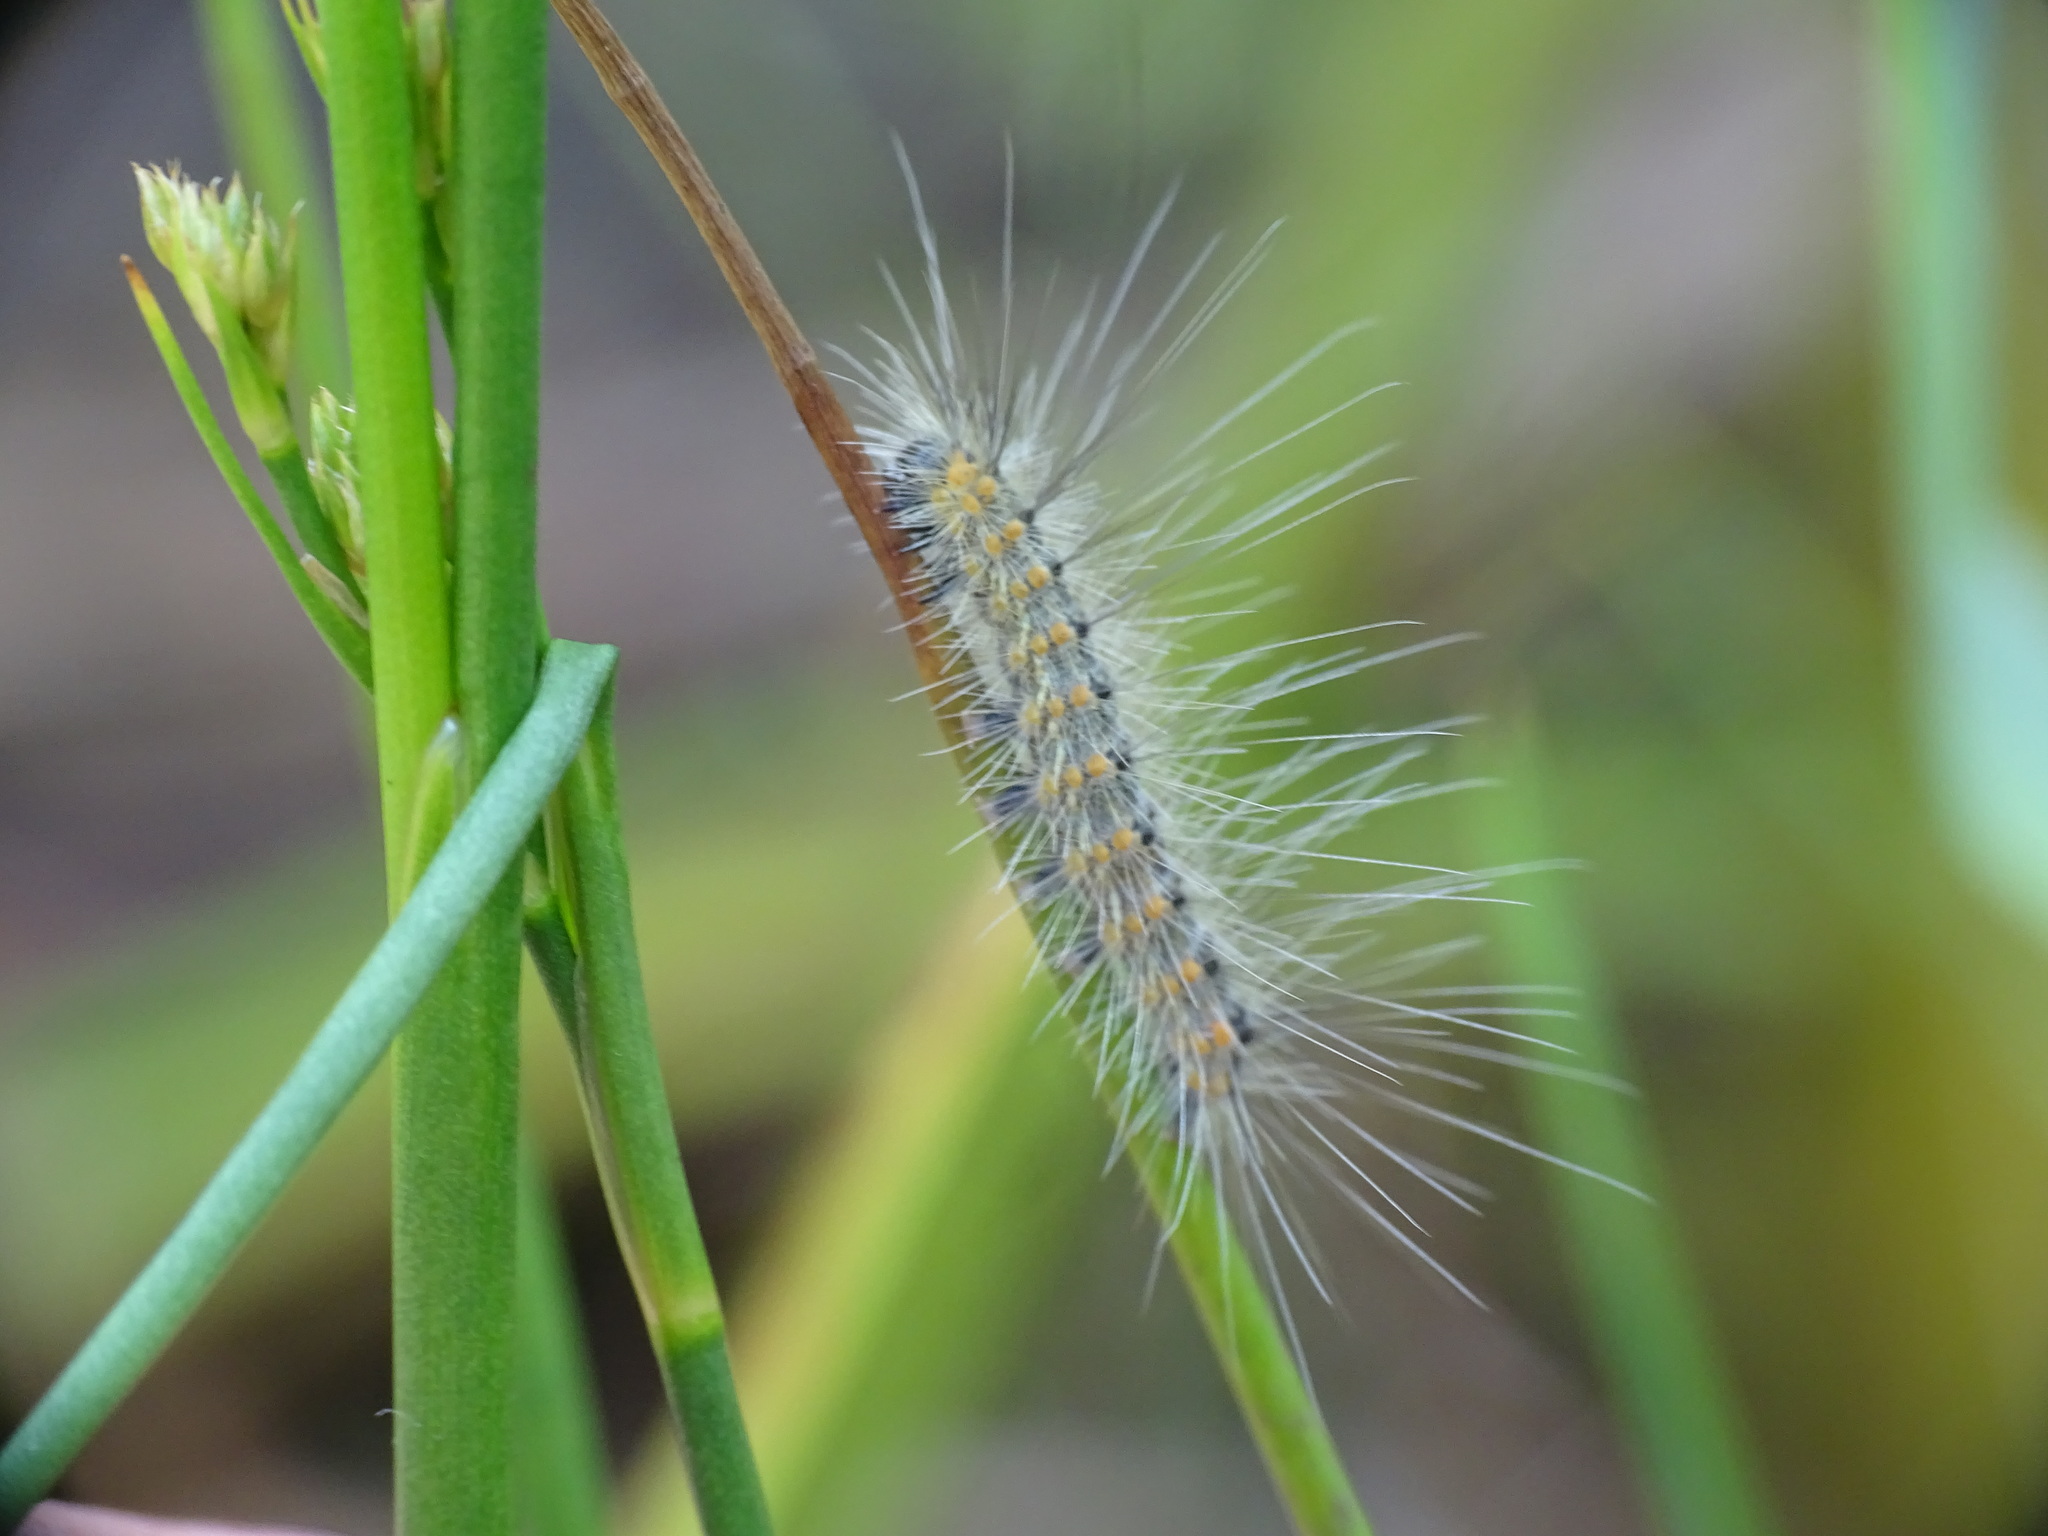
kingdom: Animalia
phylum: Arthropoda
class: Insecta
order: Lepidoptera
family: Erebidae
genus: Hyphantria
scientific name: Hyphantria cunea
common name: American white moth
